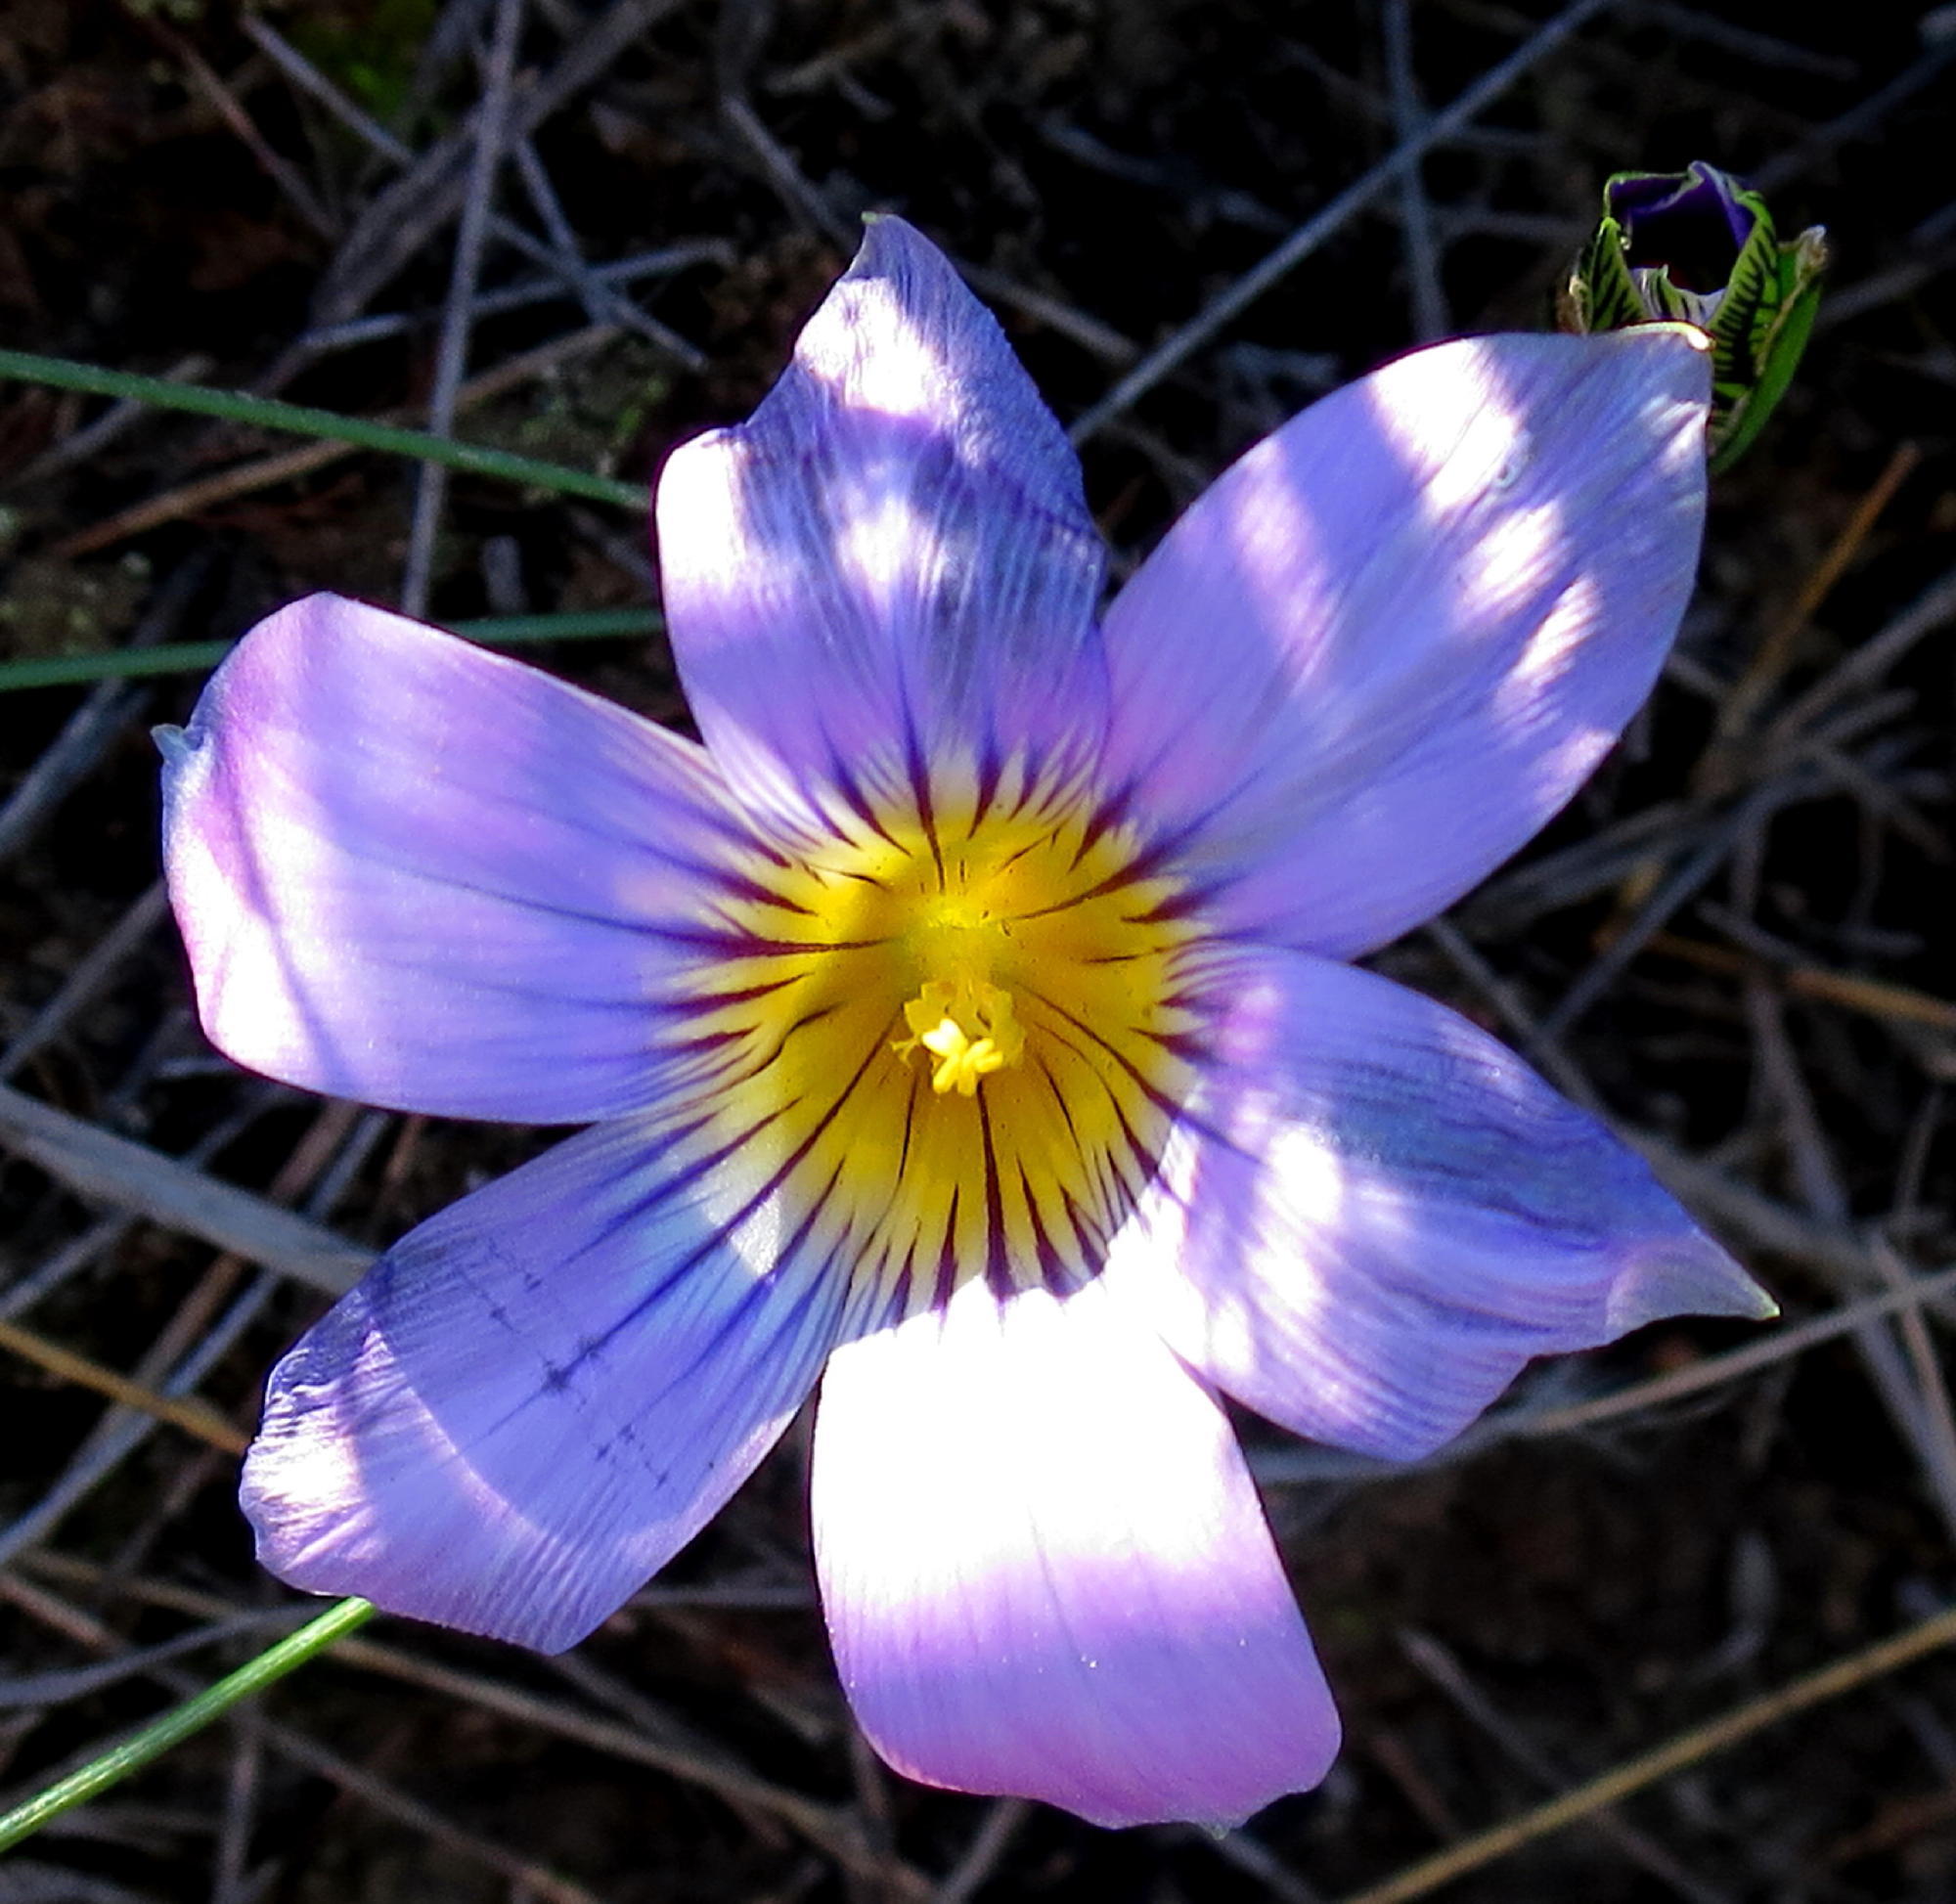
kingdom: Plantae
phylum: Tracheophyta
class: Liliopsida
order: Asparagales
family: Iridaceae
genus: Romulea
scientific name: Romulea vlokii
